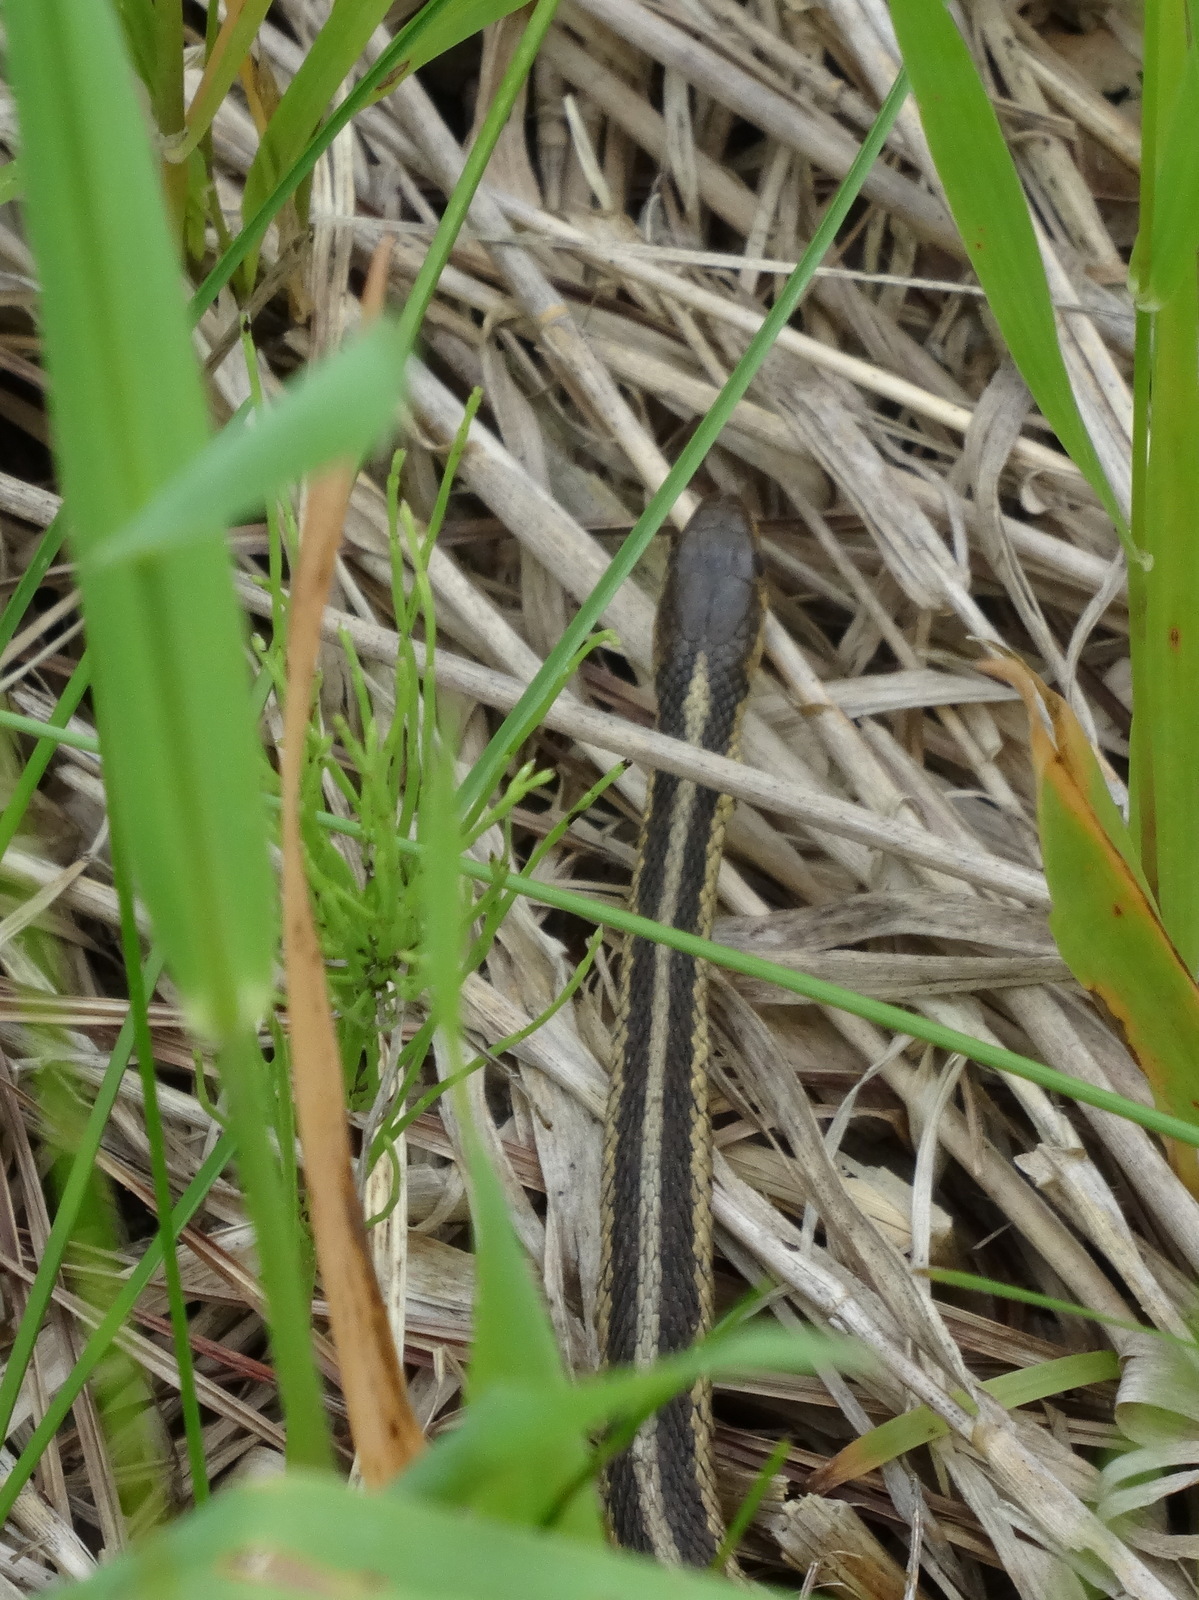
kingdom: Animalia
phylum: Chordata
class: Squamata
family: Colubridae
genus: Thamnophis
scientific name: Thamnophis
